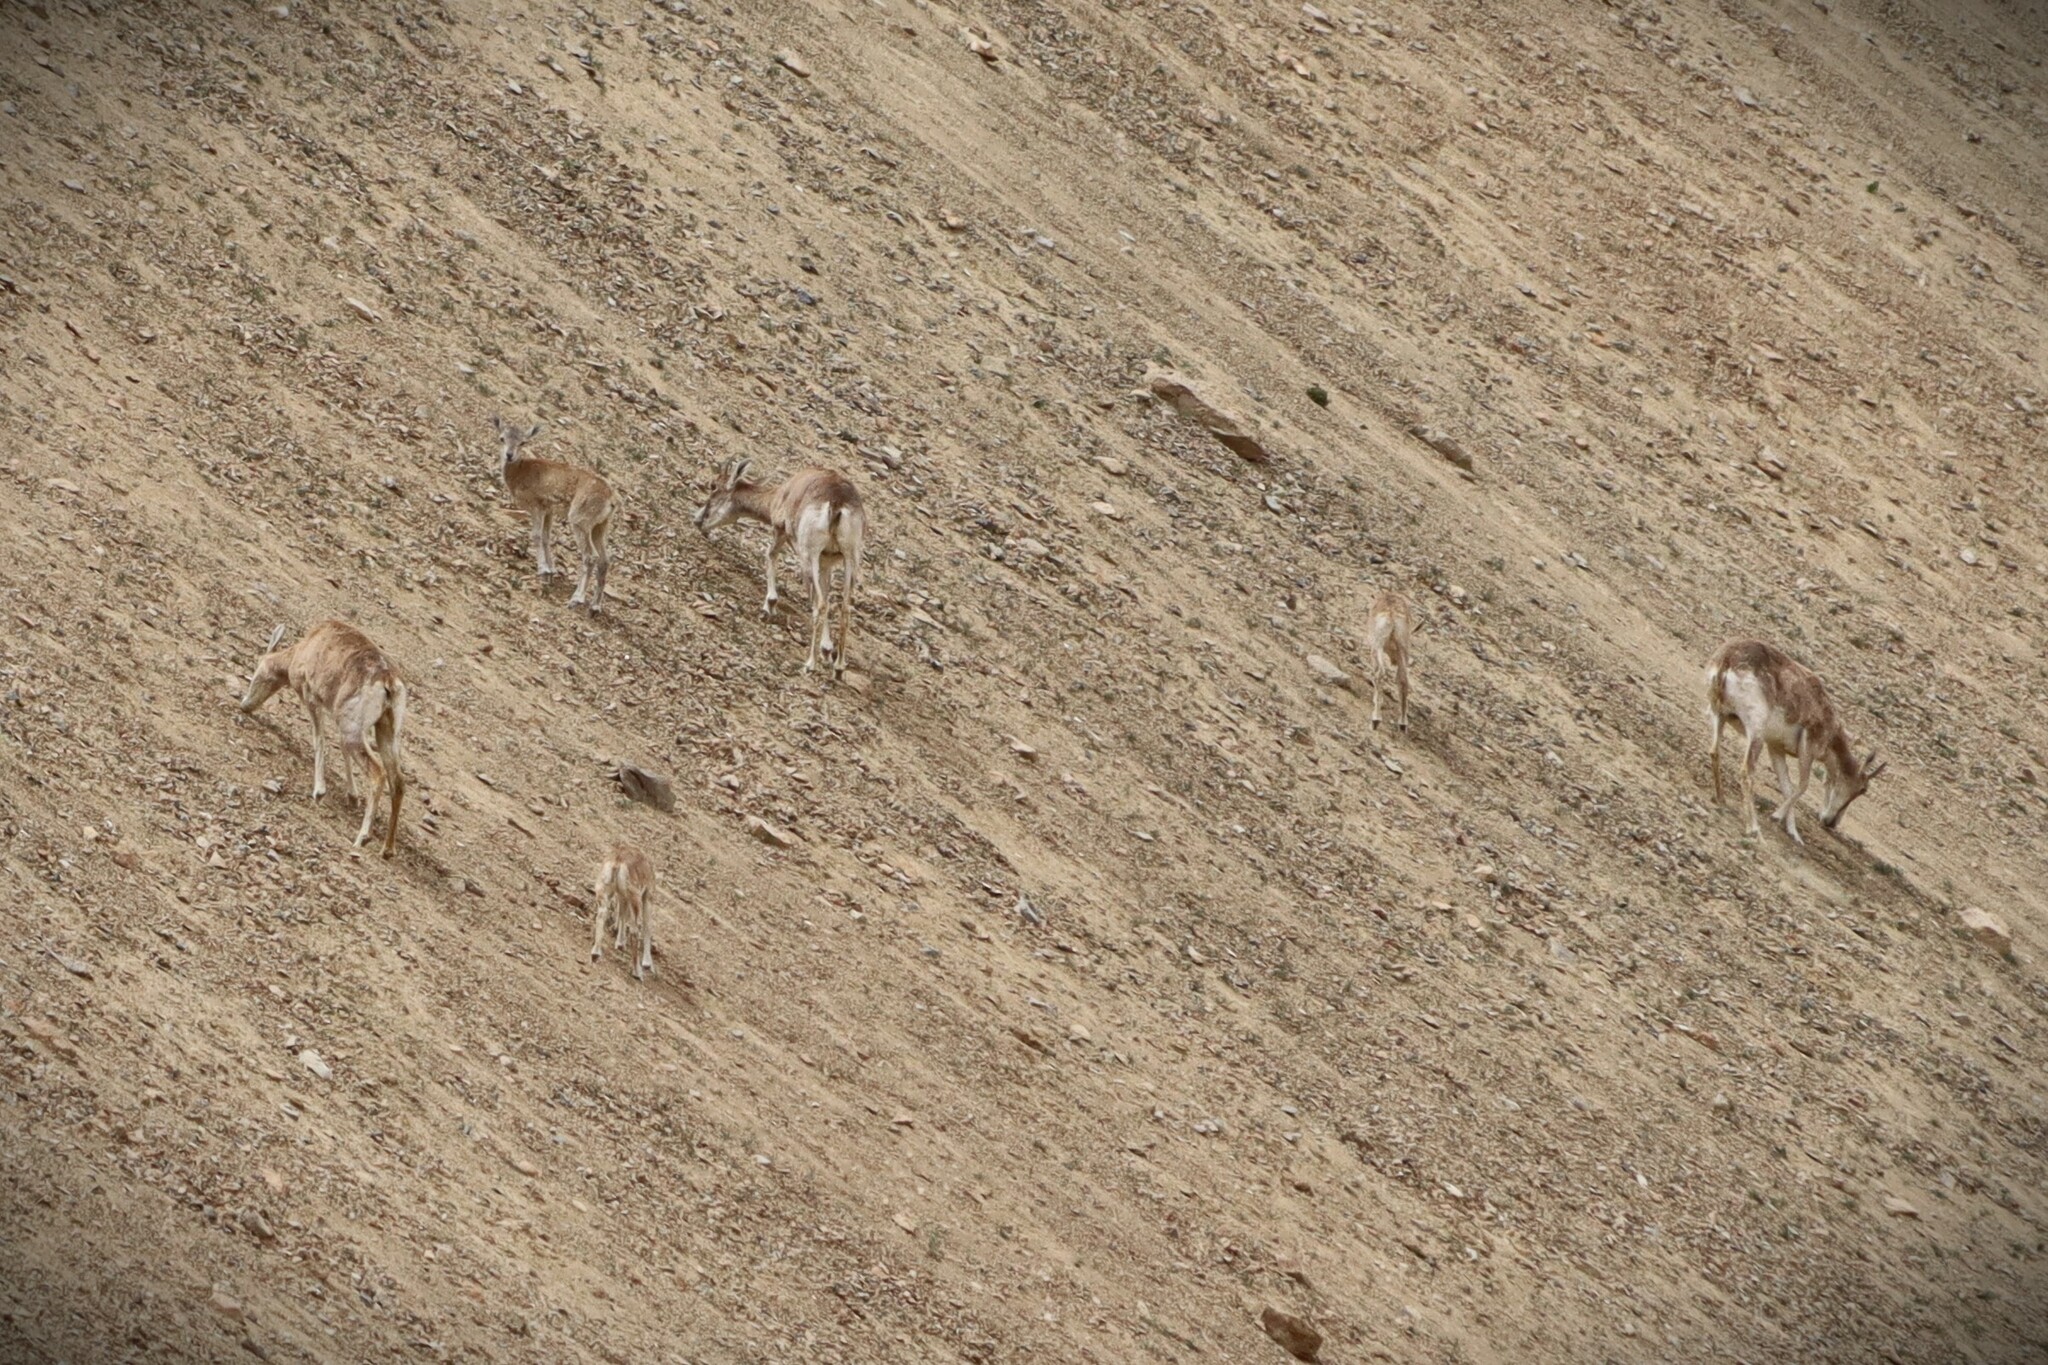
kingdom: Animalia
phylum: Chordata
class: Mammalia
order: Artiodactyla
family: Bovidae
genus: Capra
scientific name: Capra sibirica
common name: Siberian ibex
